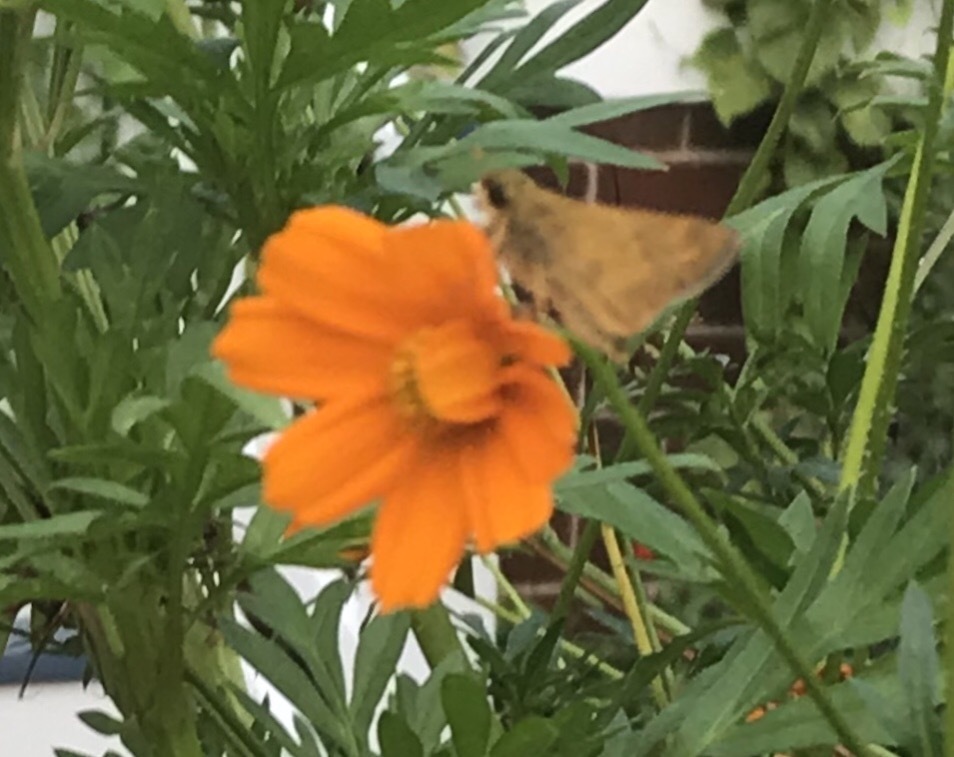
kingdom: Animalia
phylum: Arthropoda
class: Insecta
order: Lepidoptera
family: Hesperiidae
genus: Atalopedes
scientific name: Atalopedes
